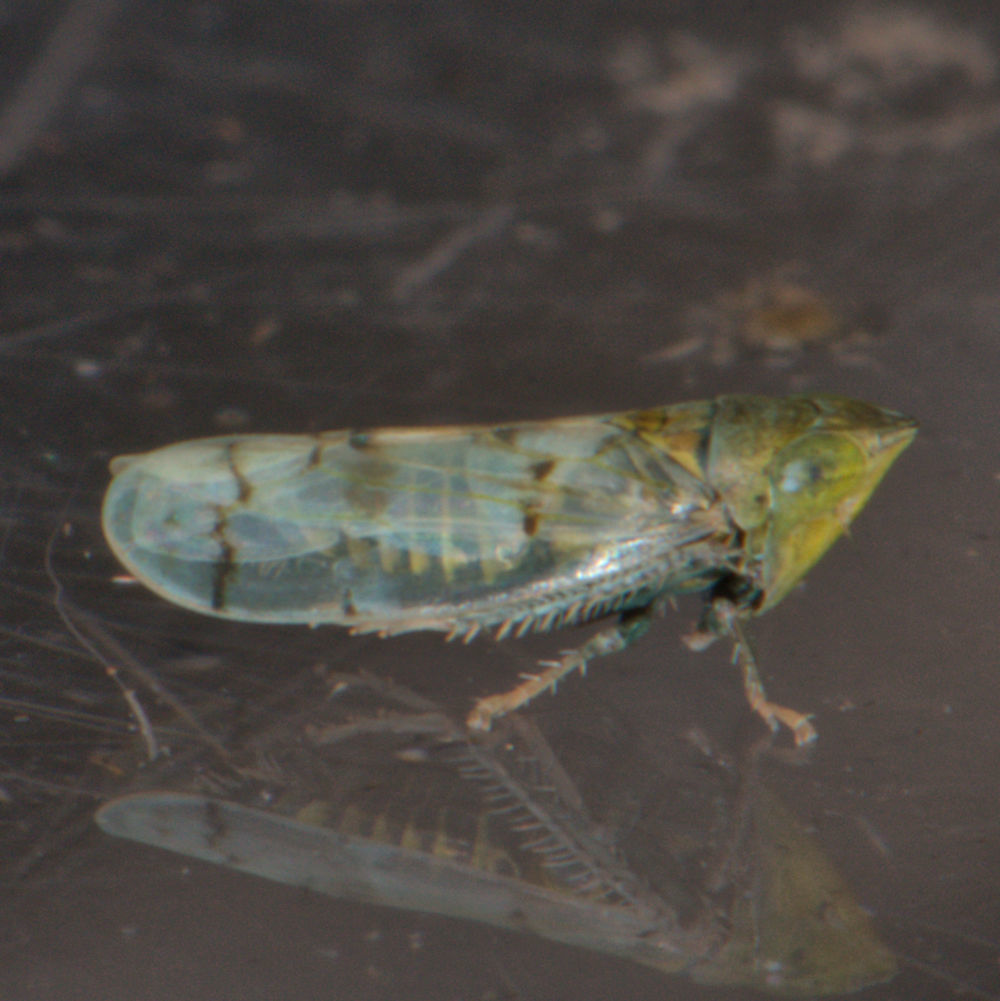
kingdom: Animalia
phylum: Arthropoda
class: Insecta
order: Hemiptera
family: Cicadellidae
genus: Japananus
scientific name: Japananus hyalinus
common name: The japanese maple leafhopper
